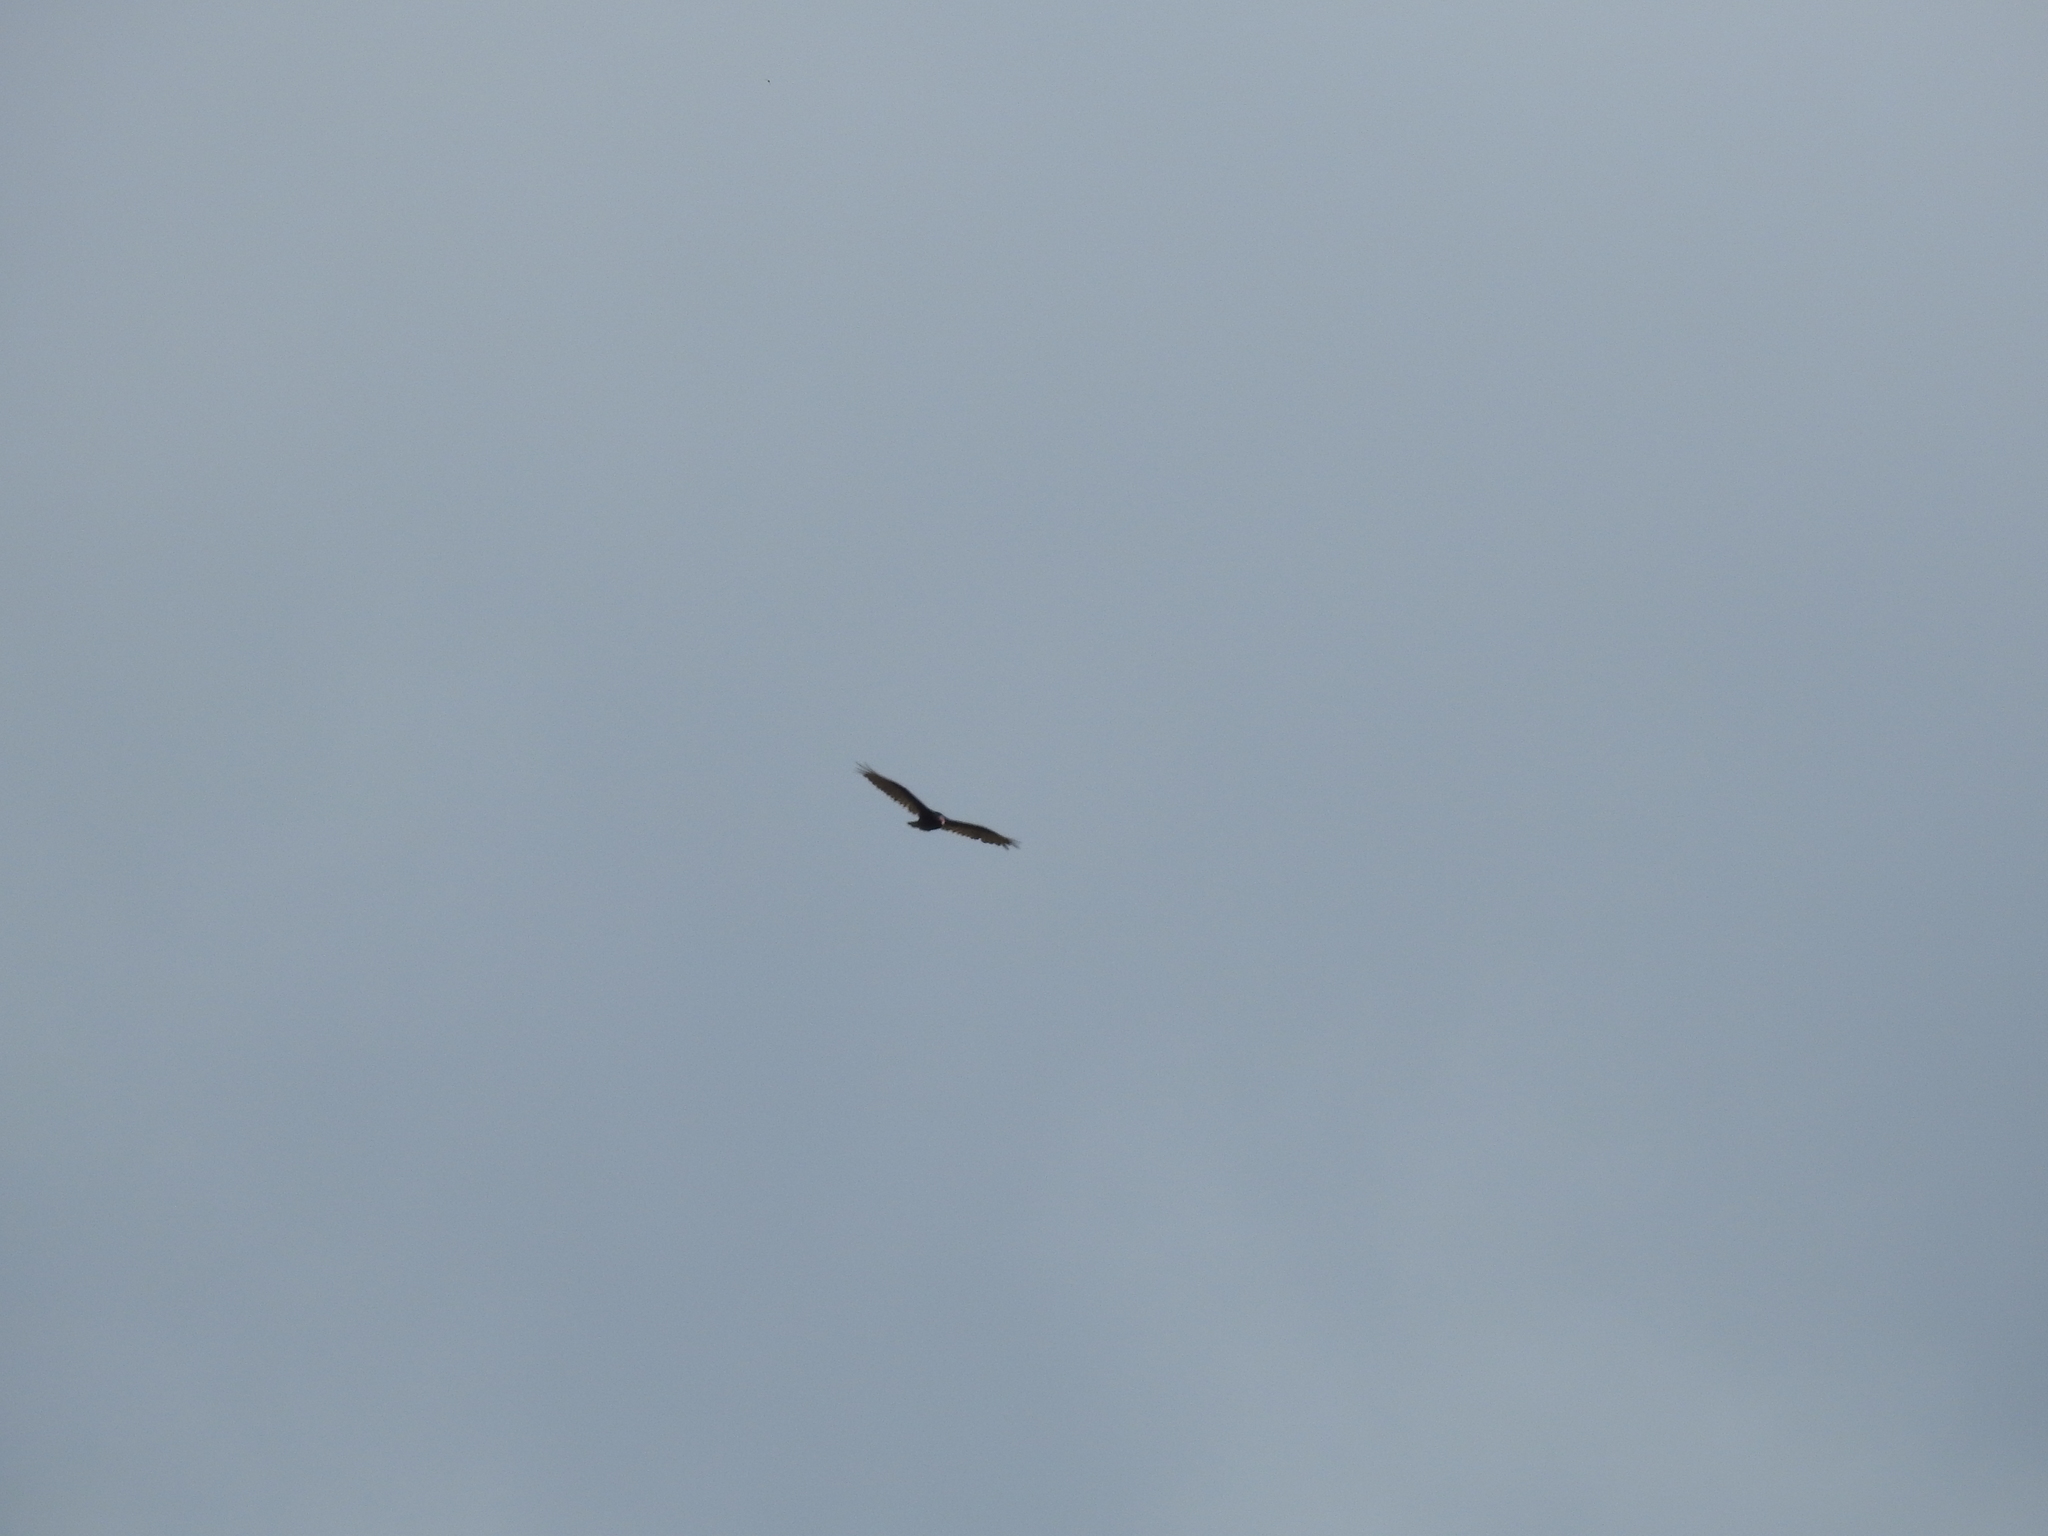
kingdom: Animalia
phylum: Chordata
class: Aves
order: Accipitriformes
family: Cathartidae
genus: Cathartes
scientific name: Cathartes aura
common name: Turkey vulture
